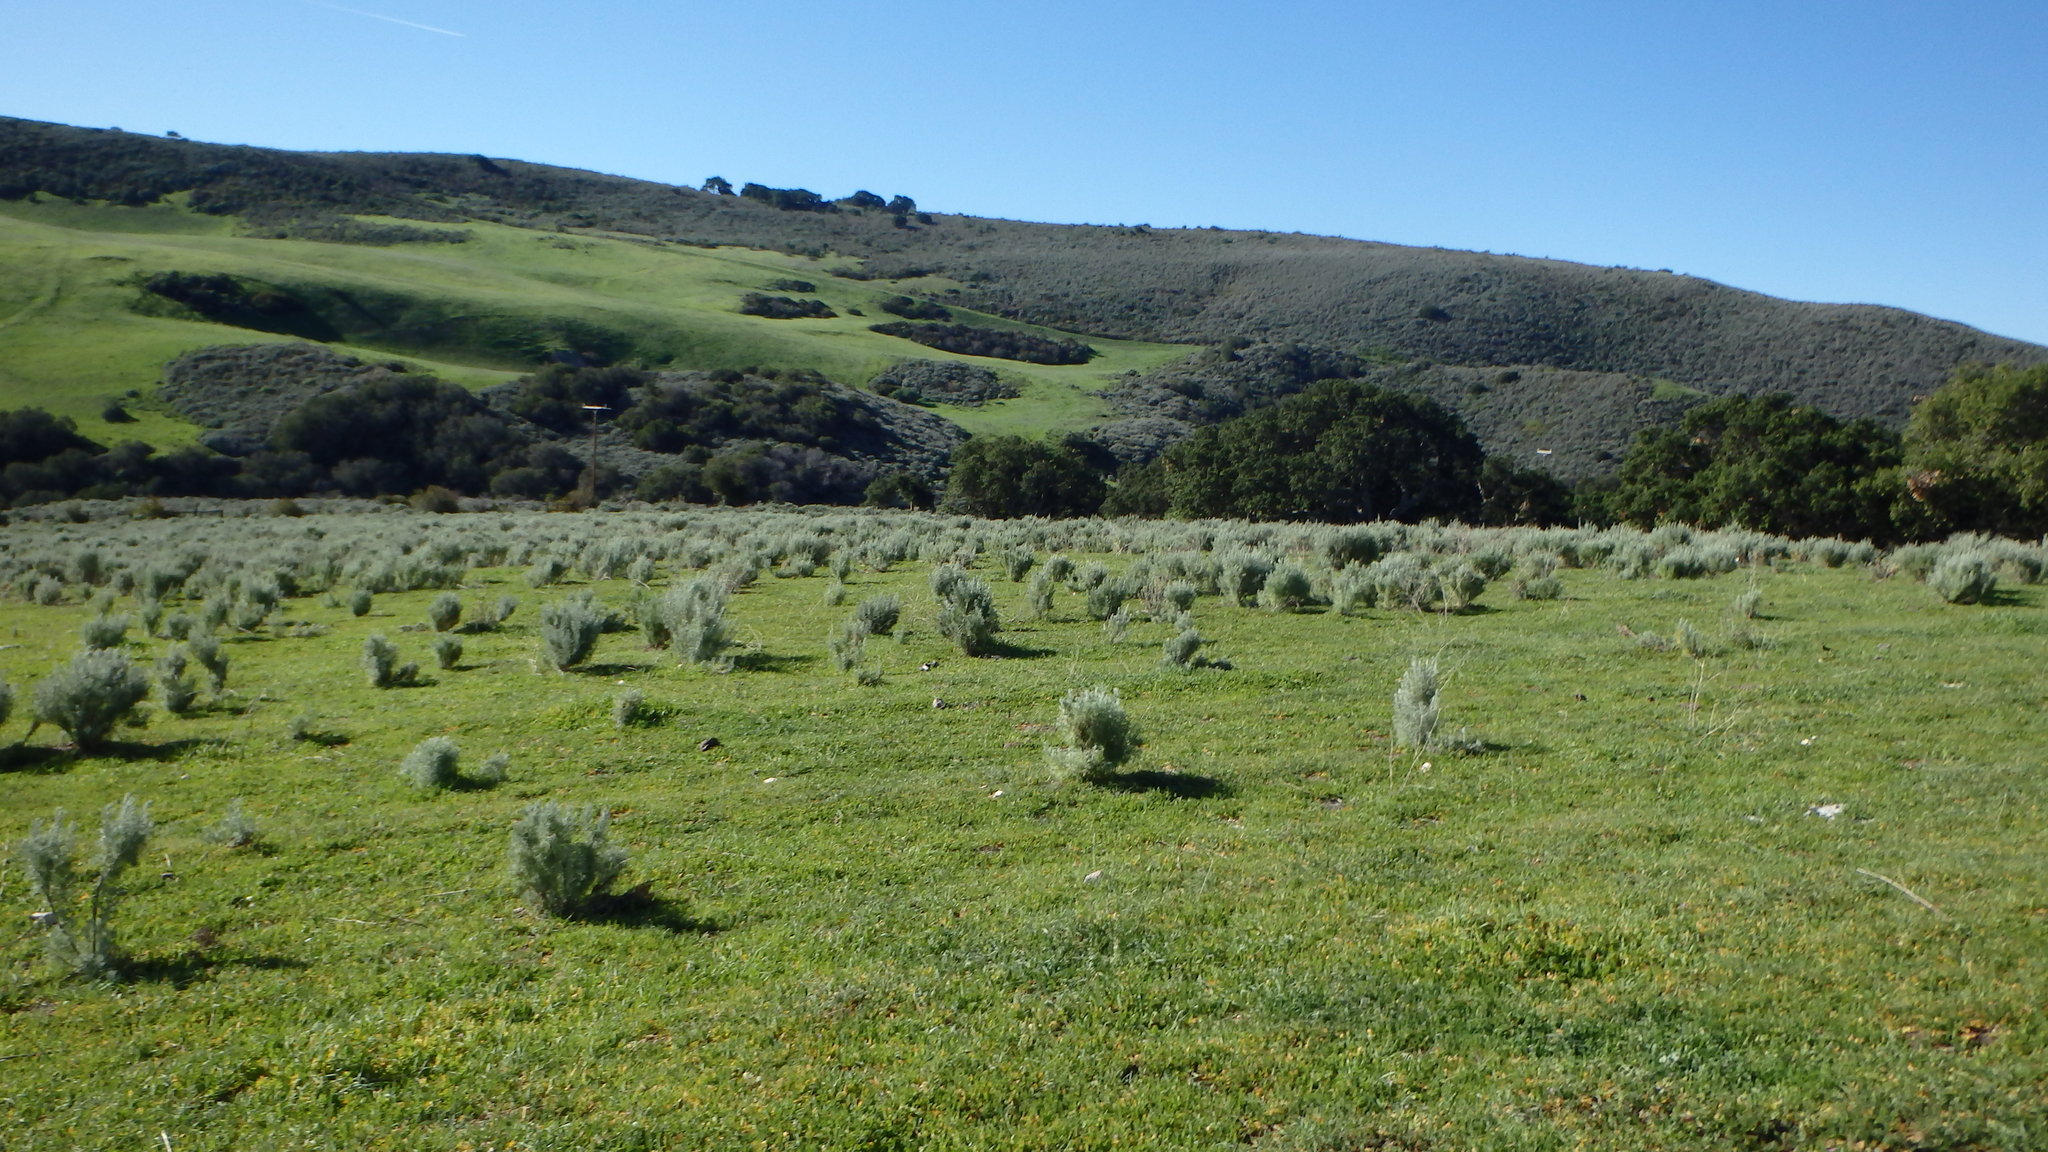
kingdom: Plantae
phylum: Tracheophyta
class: Magnoliopsida
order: Asterales
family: Asteraceae
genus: Artemisia
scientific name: Artemisia californica
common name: California sagebrush
